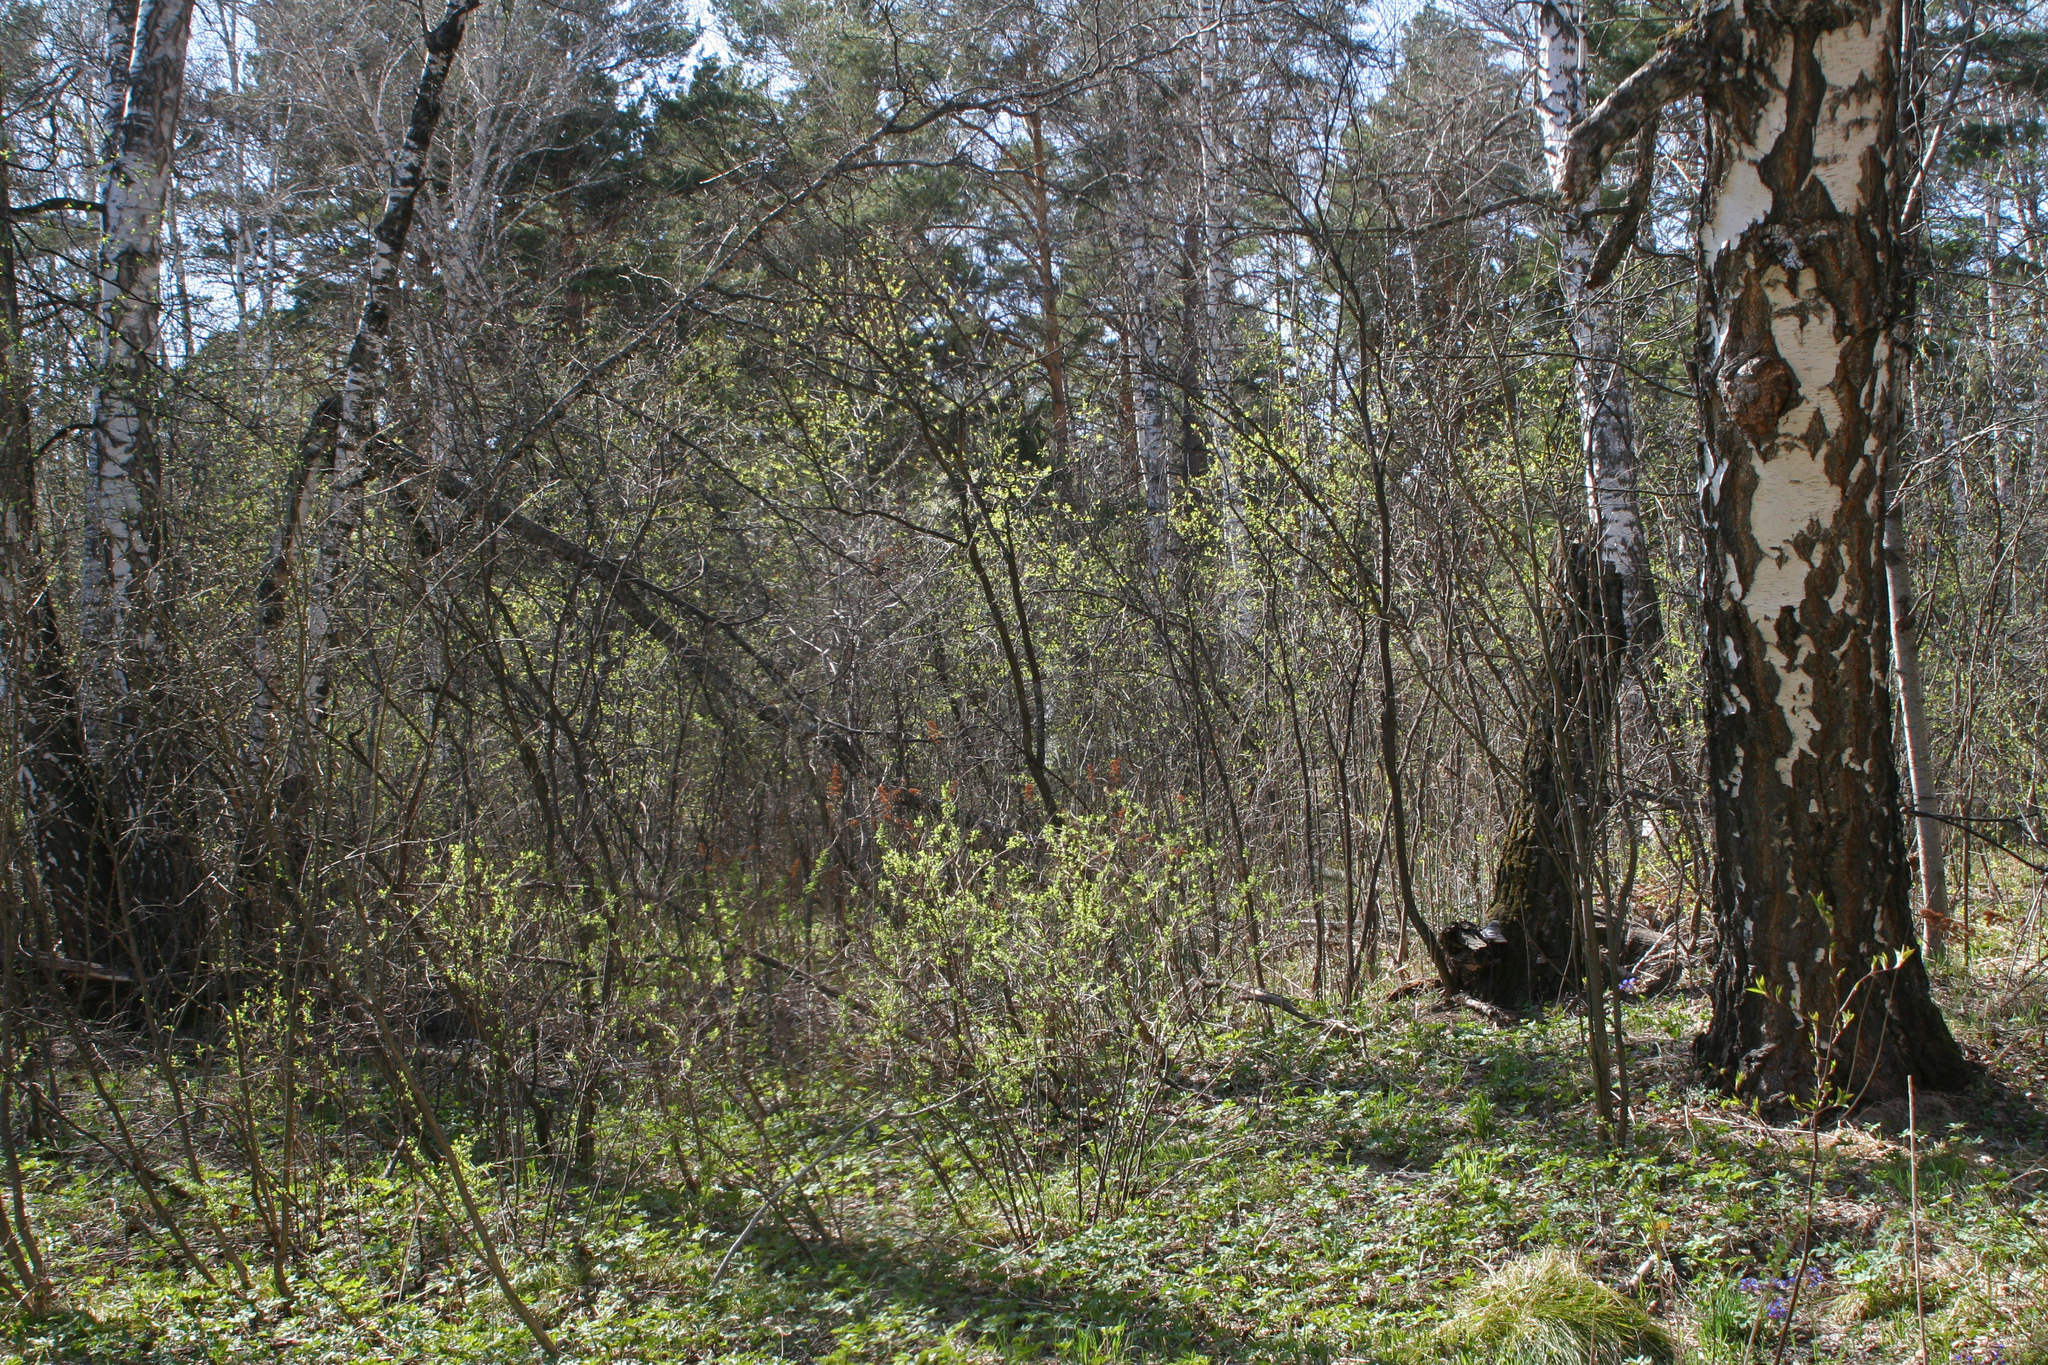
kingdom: Plantae
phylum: Tracheophyta
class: Magnoliopsida
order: Rosales
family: Rosaceae
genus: Prunus
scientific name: Prunus padus
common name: Bird cherry
